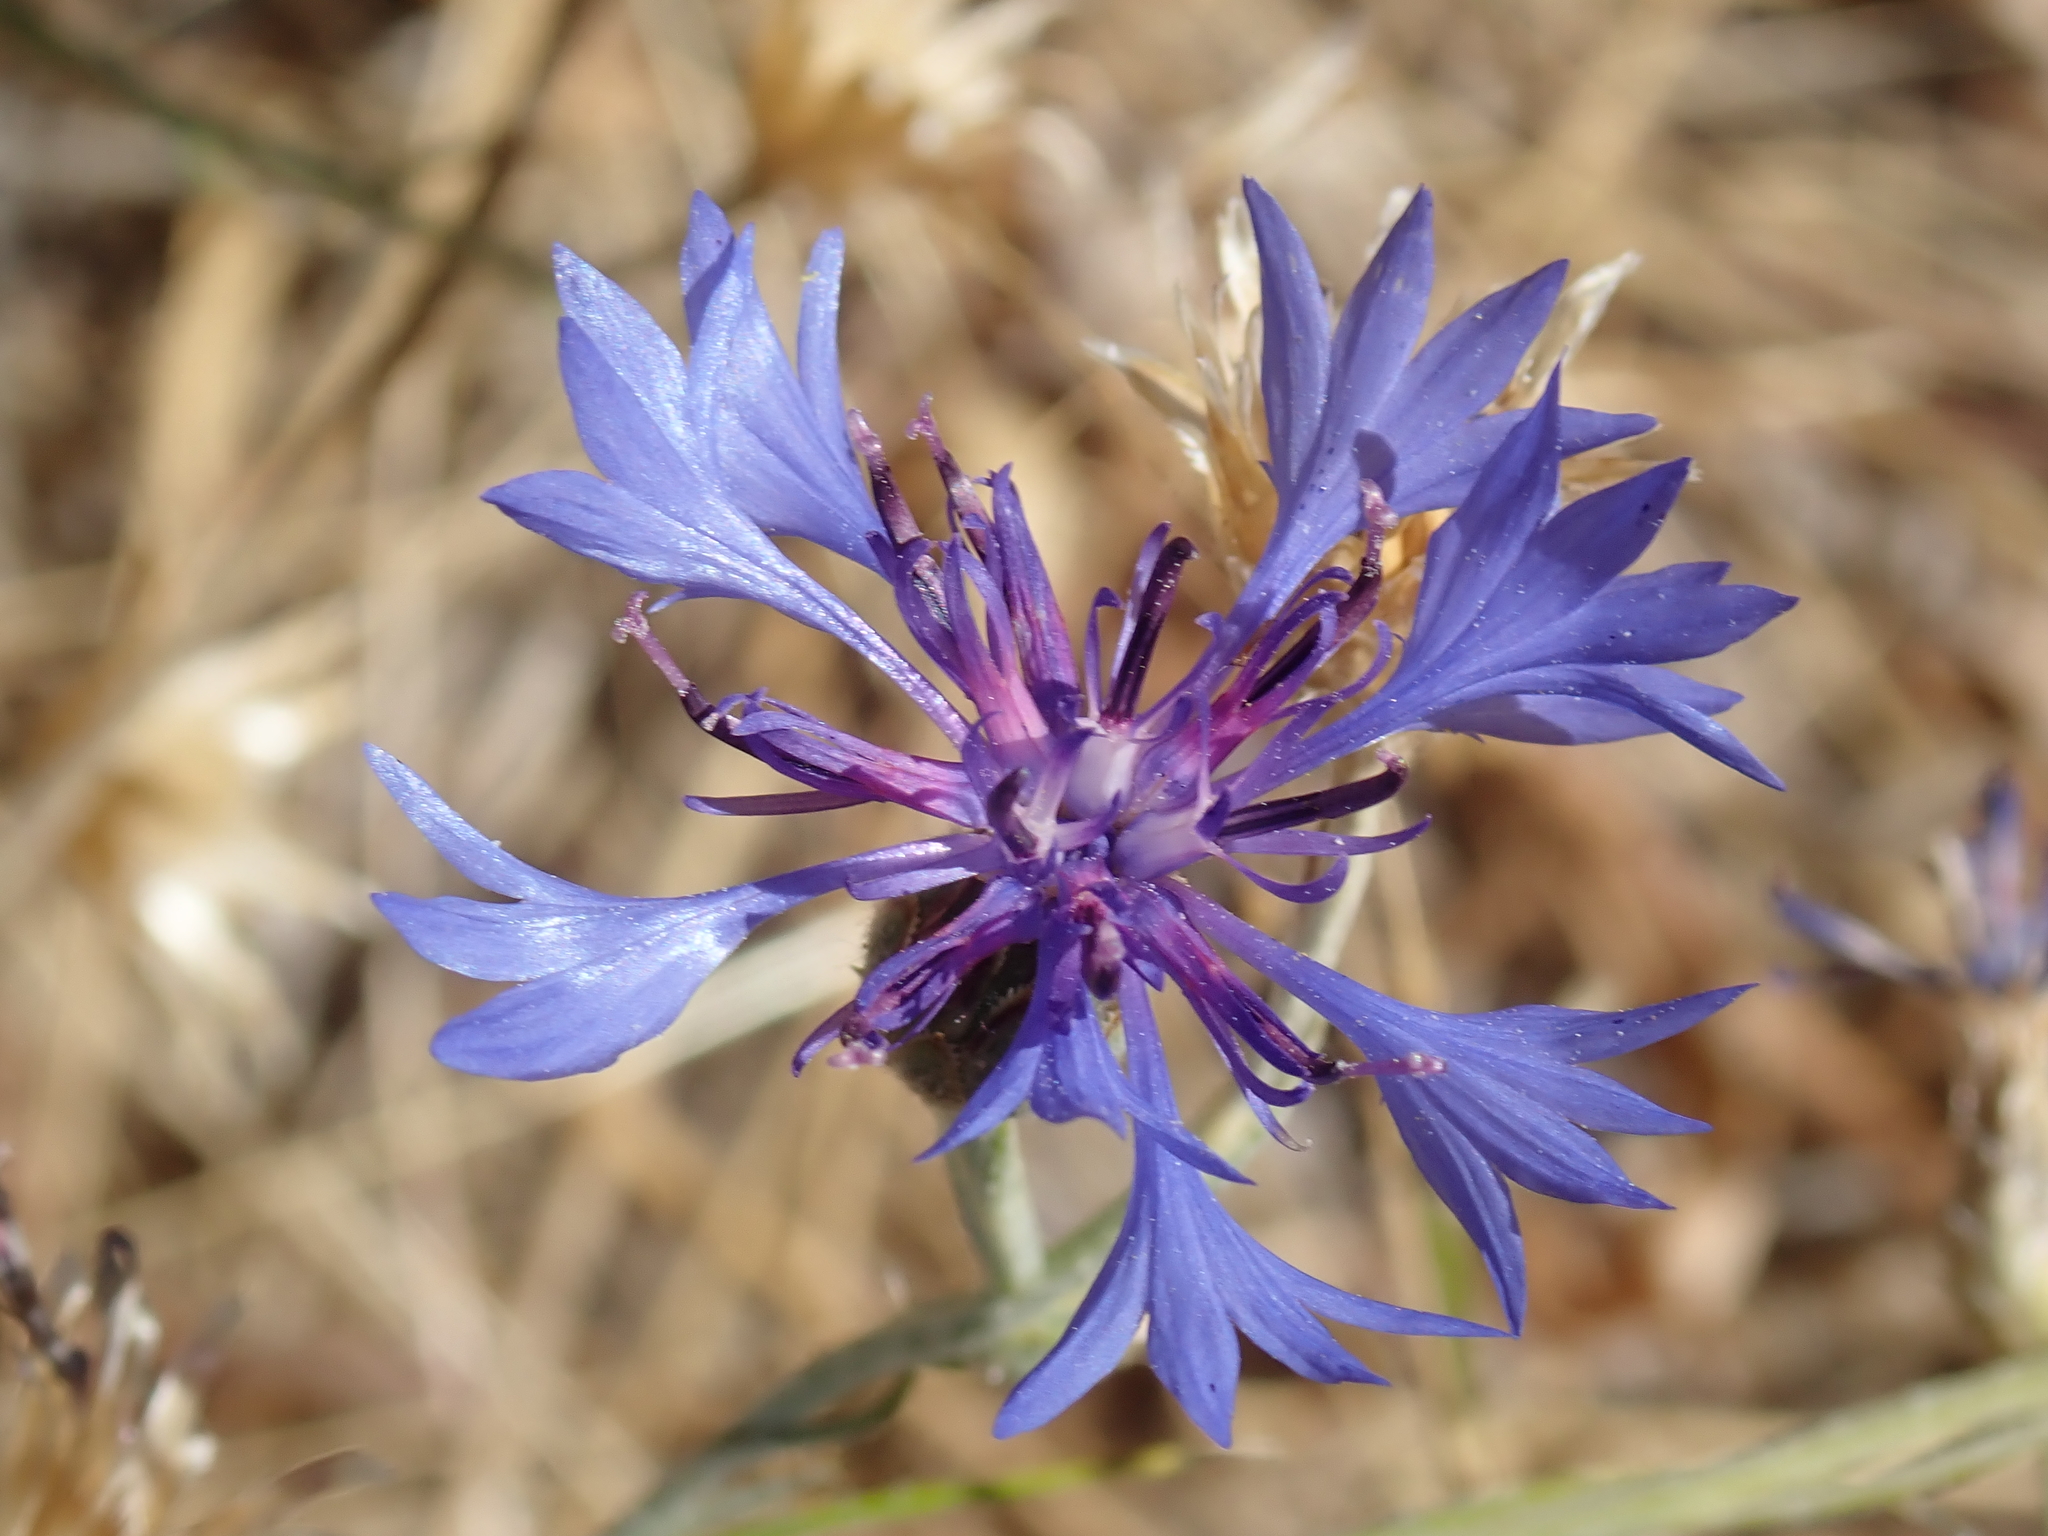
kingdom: Plantae
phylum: Tracheophyta
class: Magnoliopsida
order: Asterales
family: Asteraceae
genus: Centaurea
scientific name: Centaurea cyanus
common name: Cornflower
